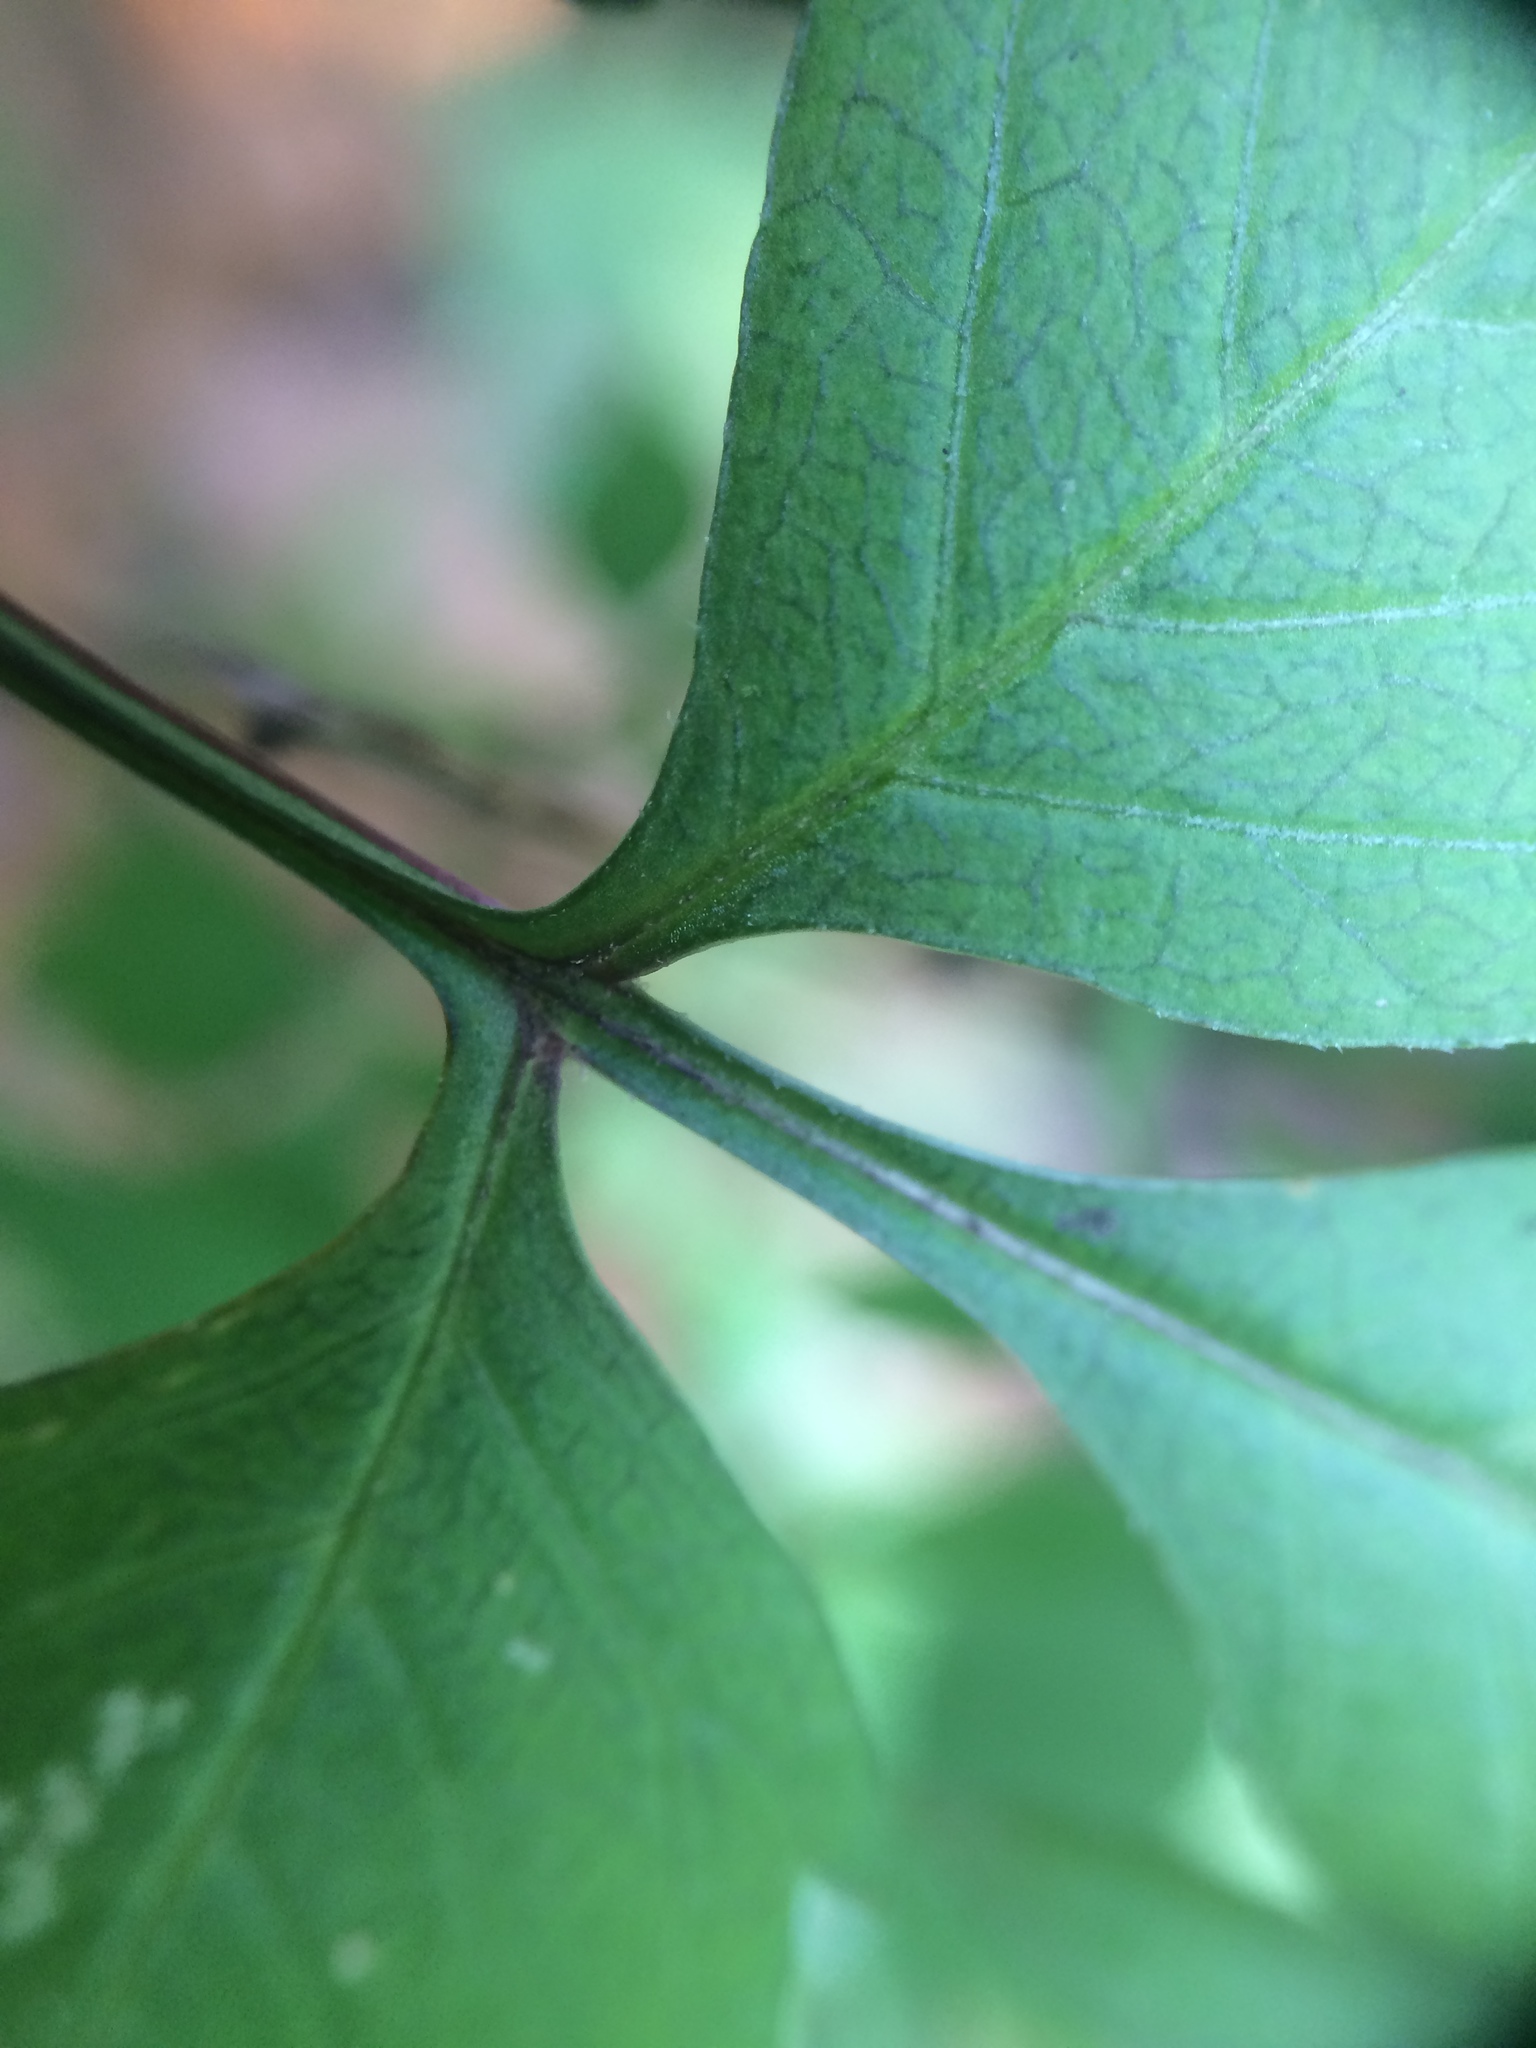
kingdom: Plantae
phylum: Tracheophyta
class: Magnoliopsida
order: Asterales
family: Asteraceae
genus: Bidens
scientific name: Bidens frondosa
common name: Beggarticks
